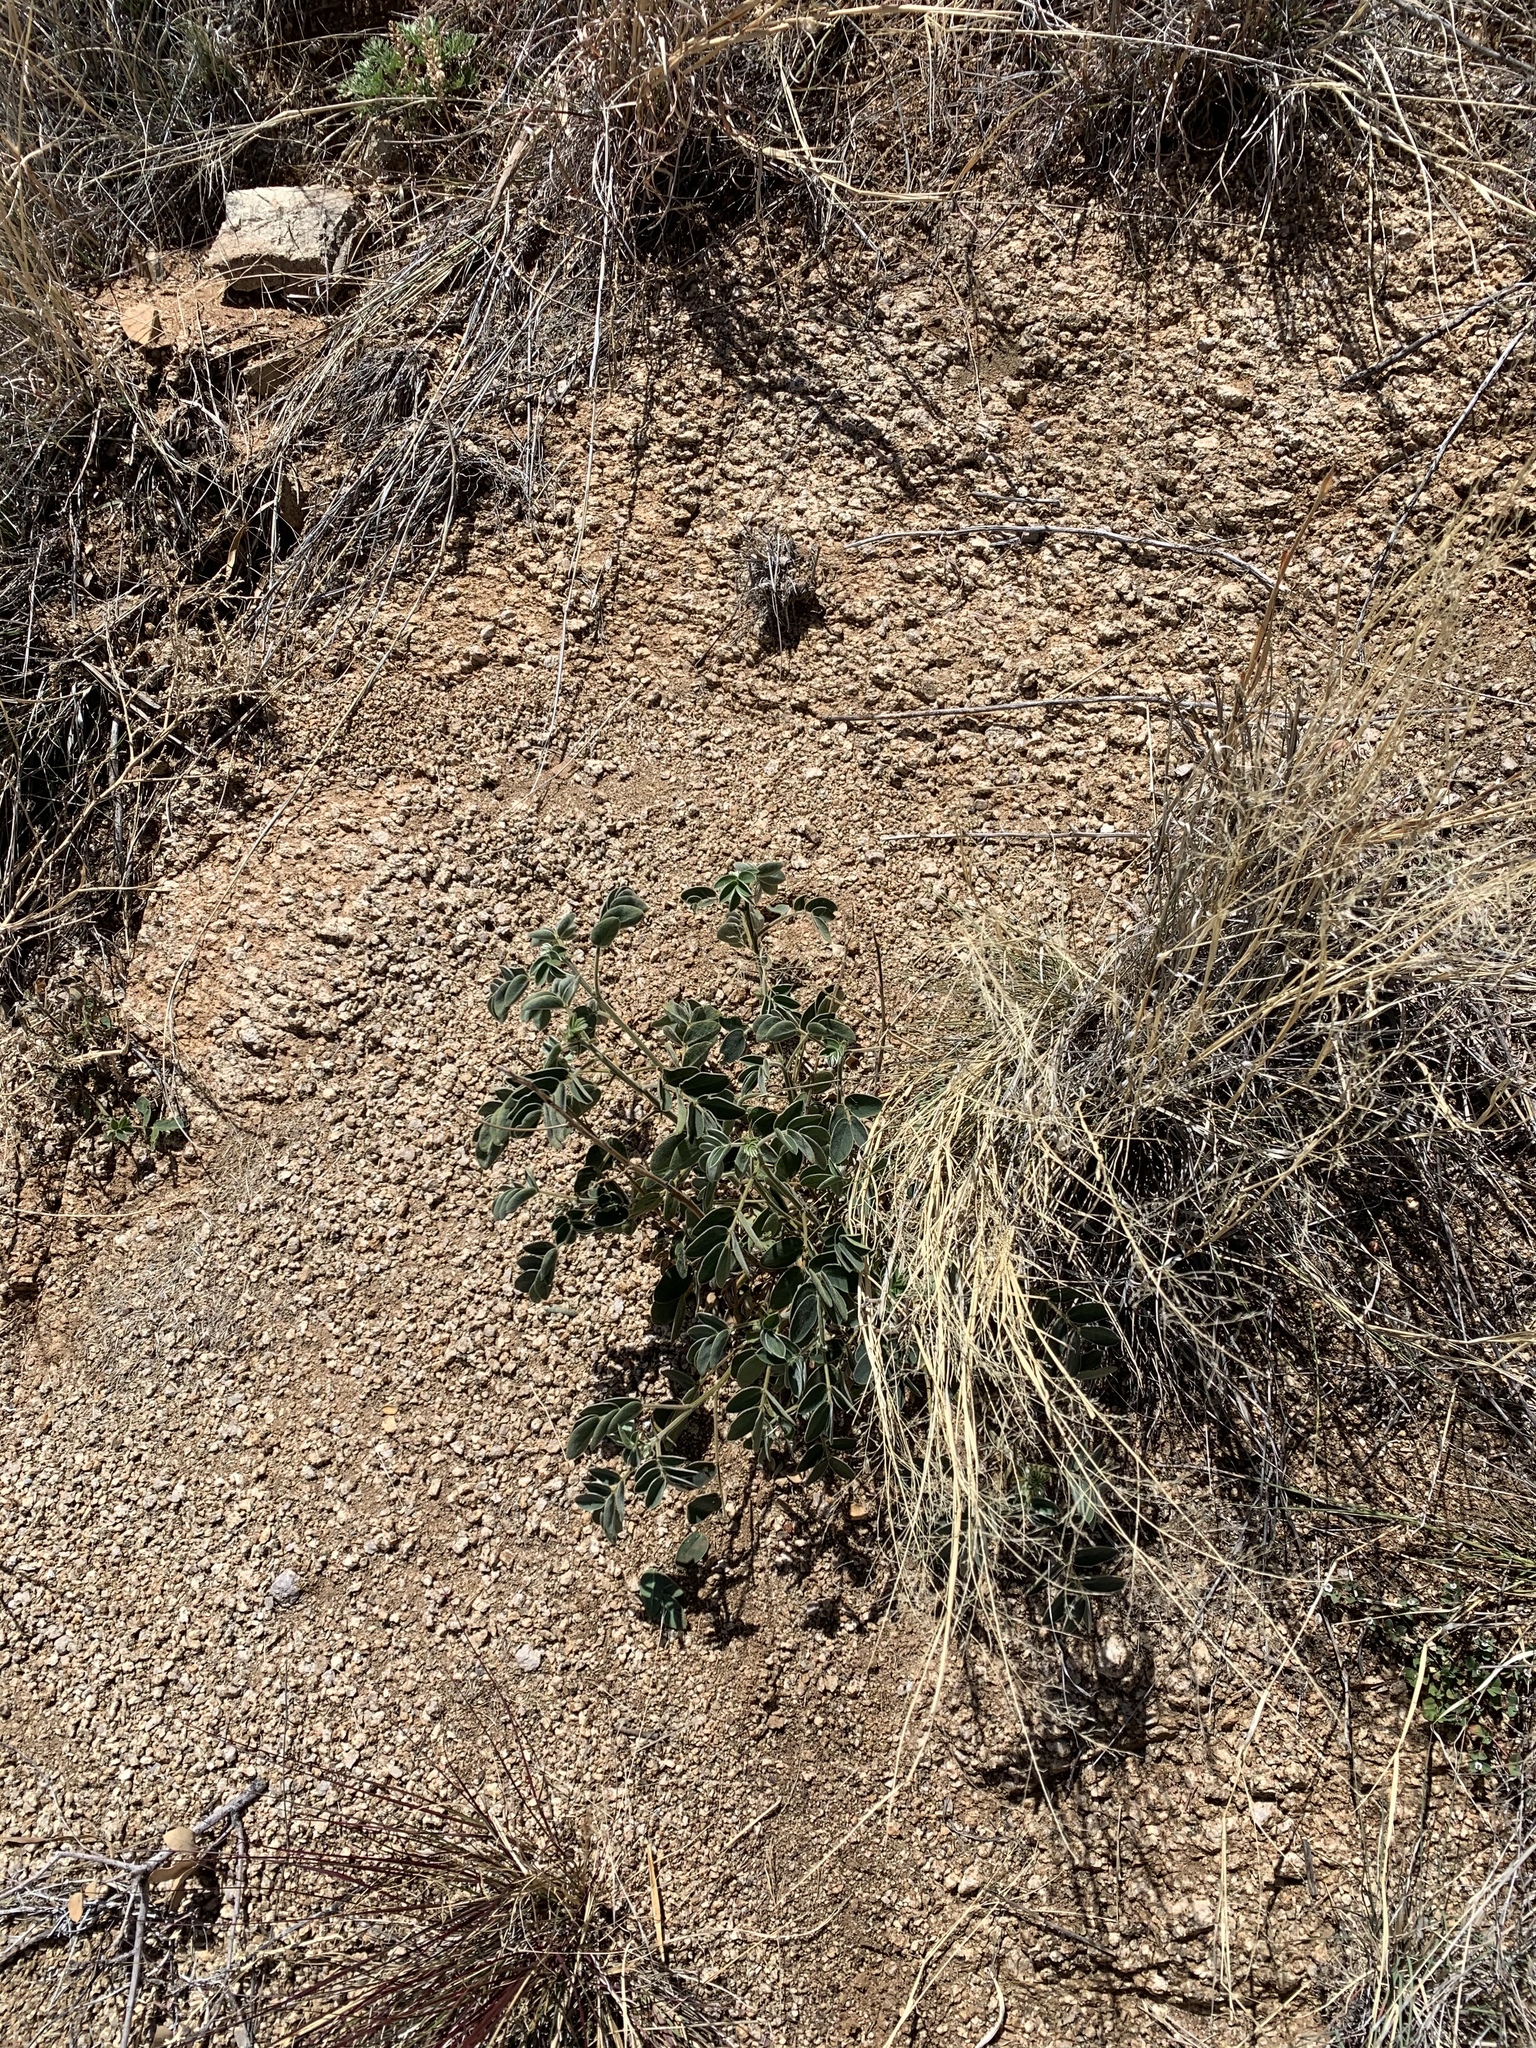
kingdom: Plantae
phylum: Tracheophyta
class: Magnoliopsida
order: Fabales
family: Fabaceae
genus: Senna
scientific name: Senna lindheimeriana
